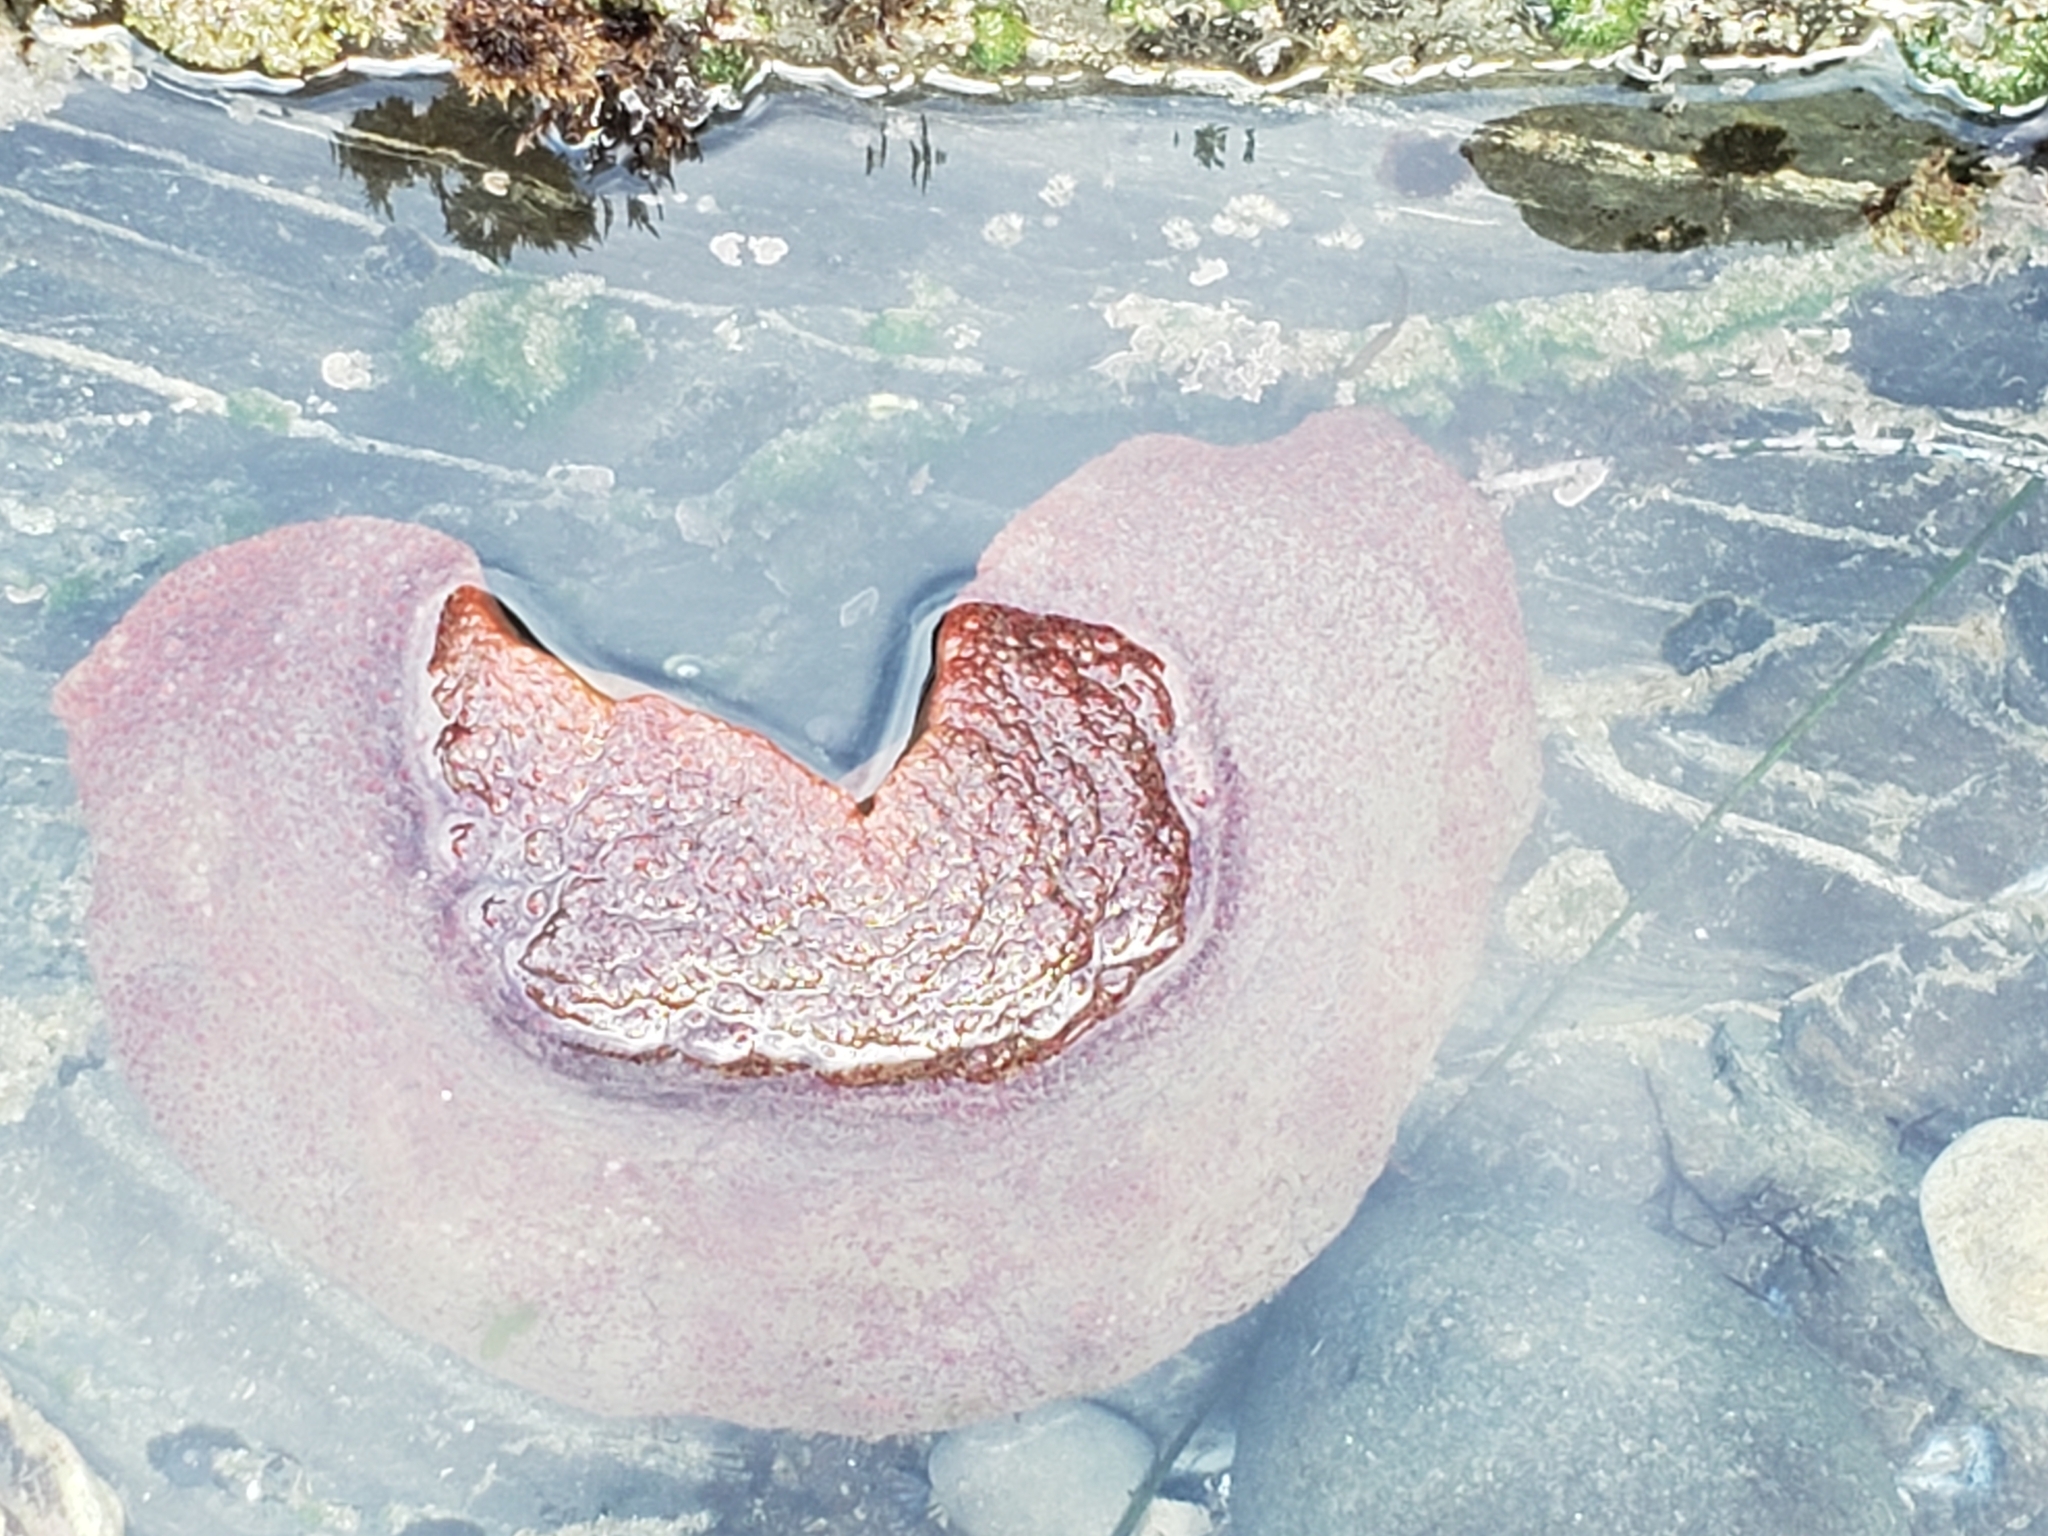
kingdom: Animalia
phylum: Mollusca
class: Polyplacophora
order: Chitonida
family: Acanthochitonidae
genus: Cryptochiton
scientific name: Cryptochiton stelleri
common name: Giant pacific chiton
